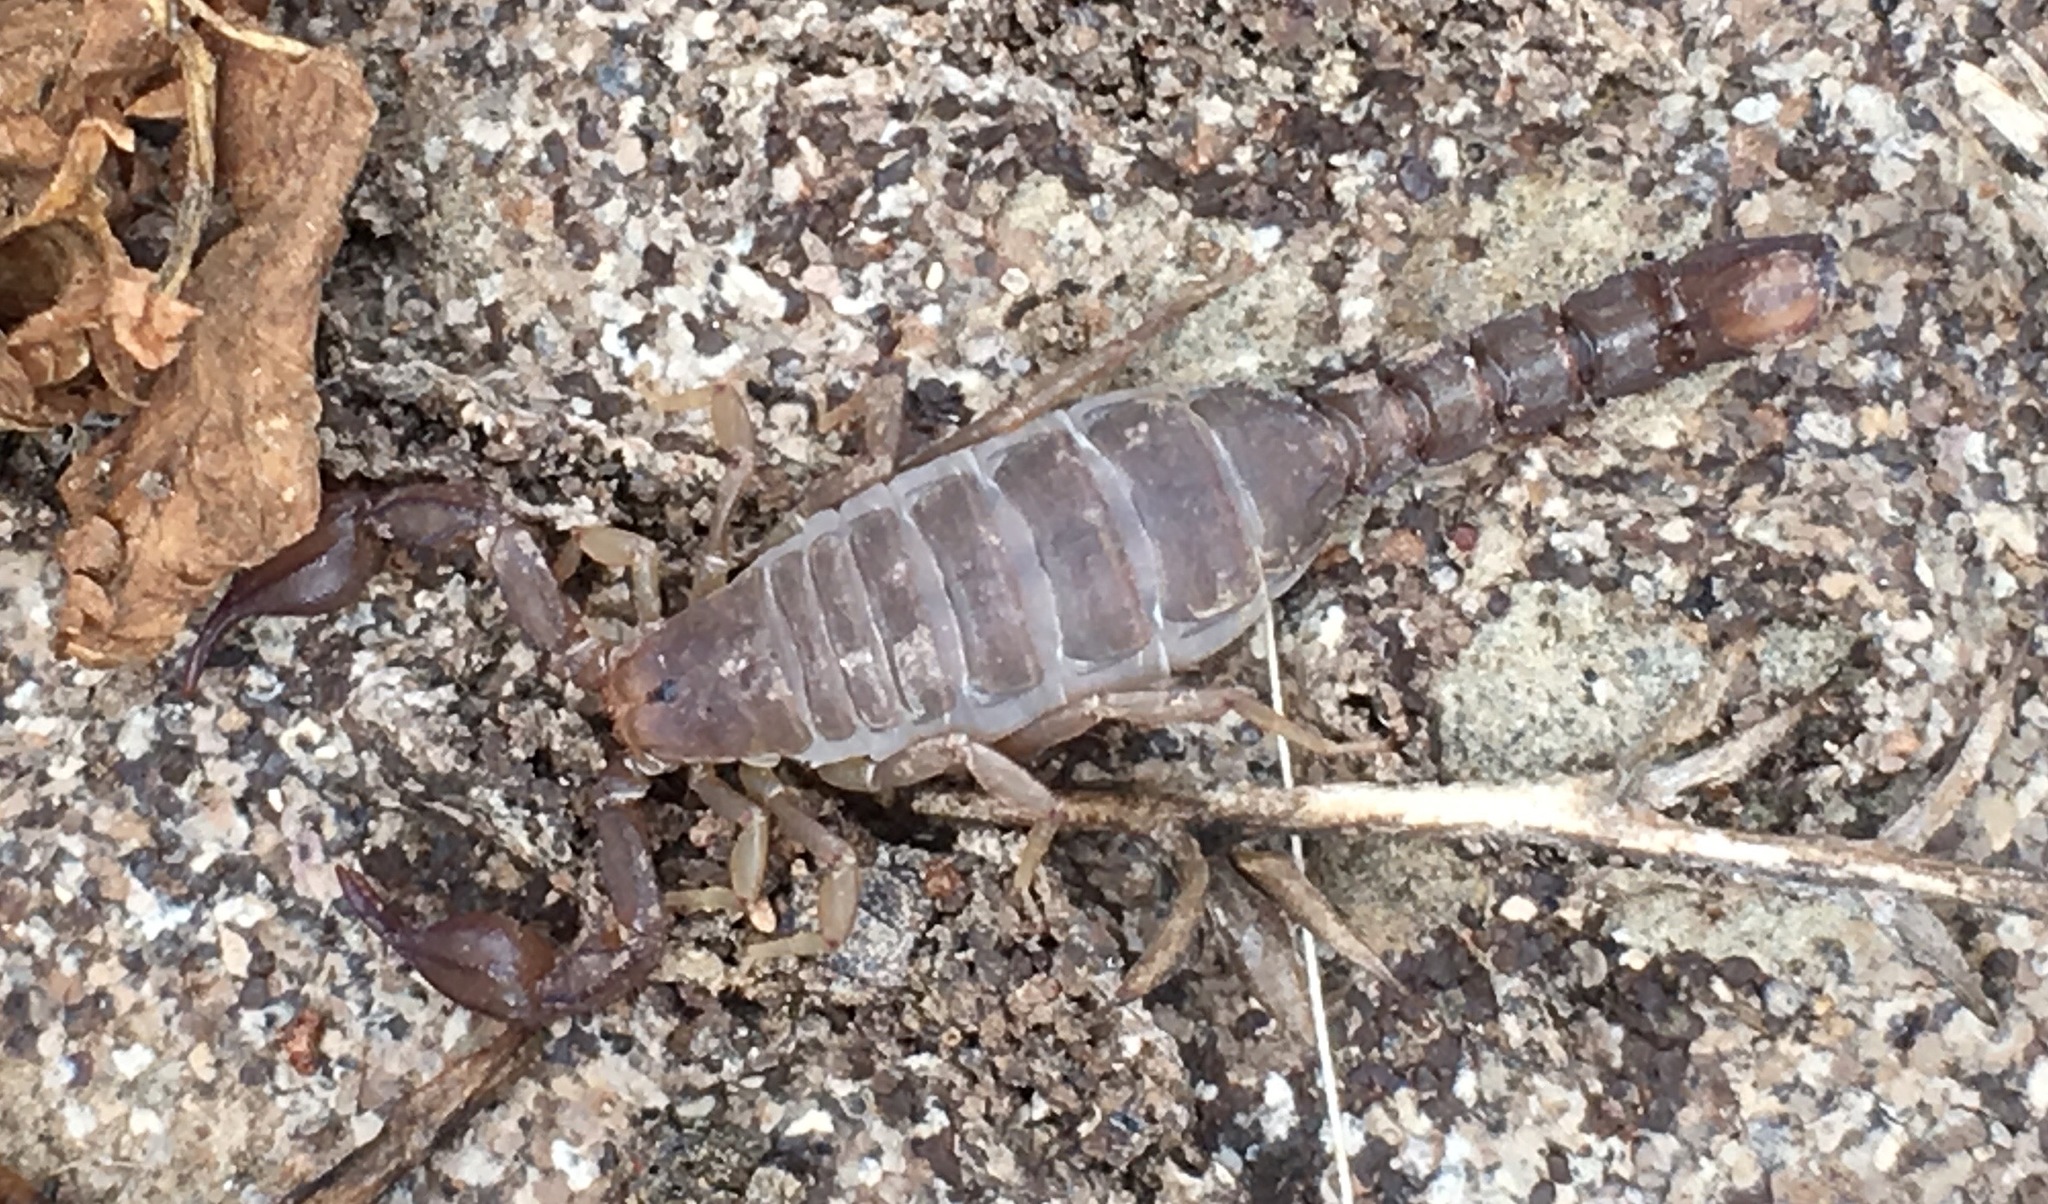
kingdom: Animalia
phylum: Arthropoda
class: Arachnida
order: Scorpiones
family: Vaejovidae
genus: Catalinia
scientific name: Catalinia minima
